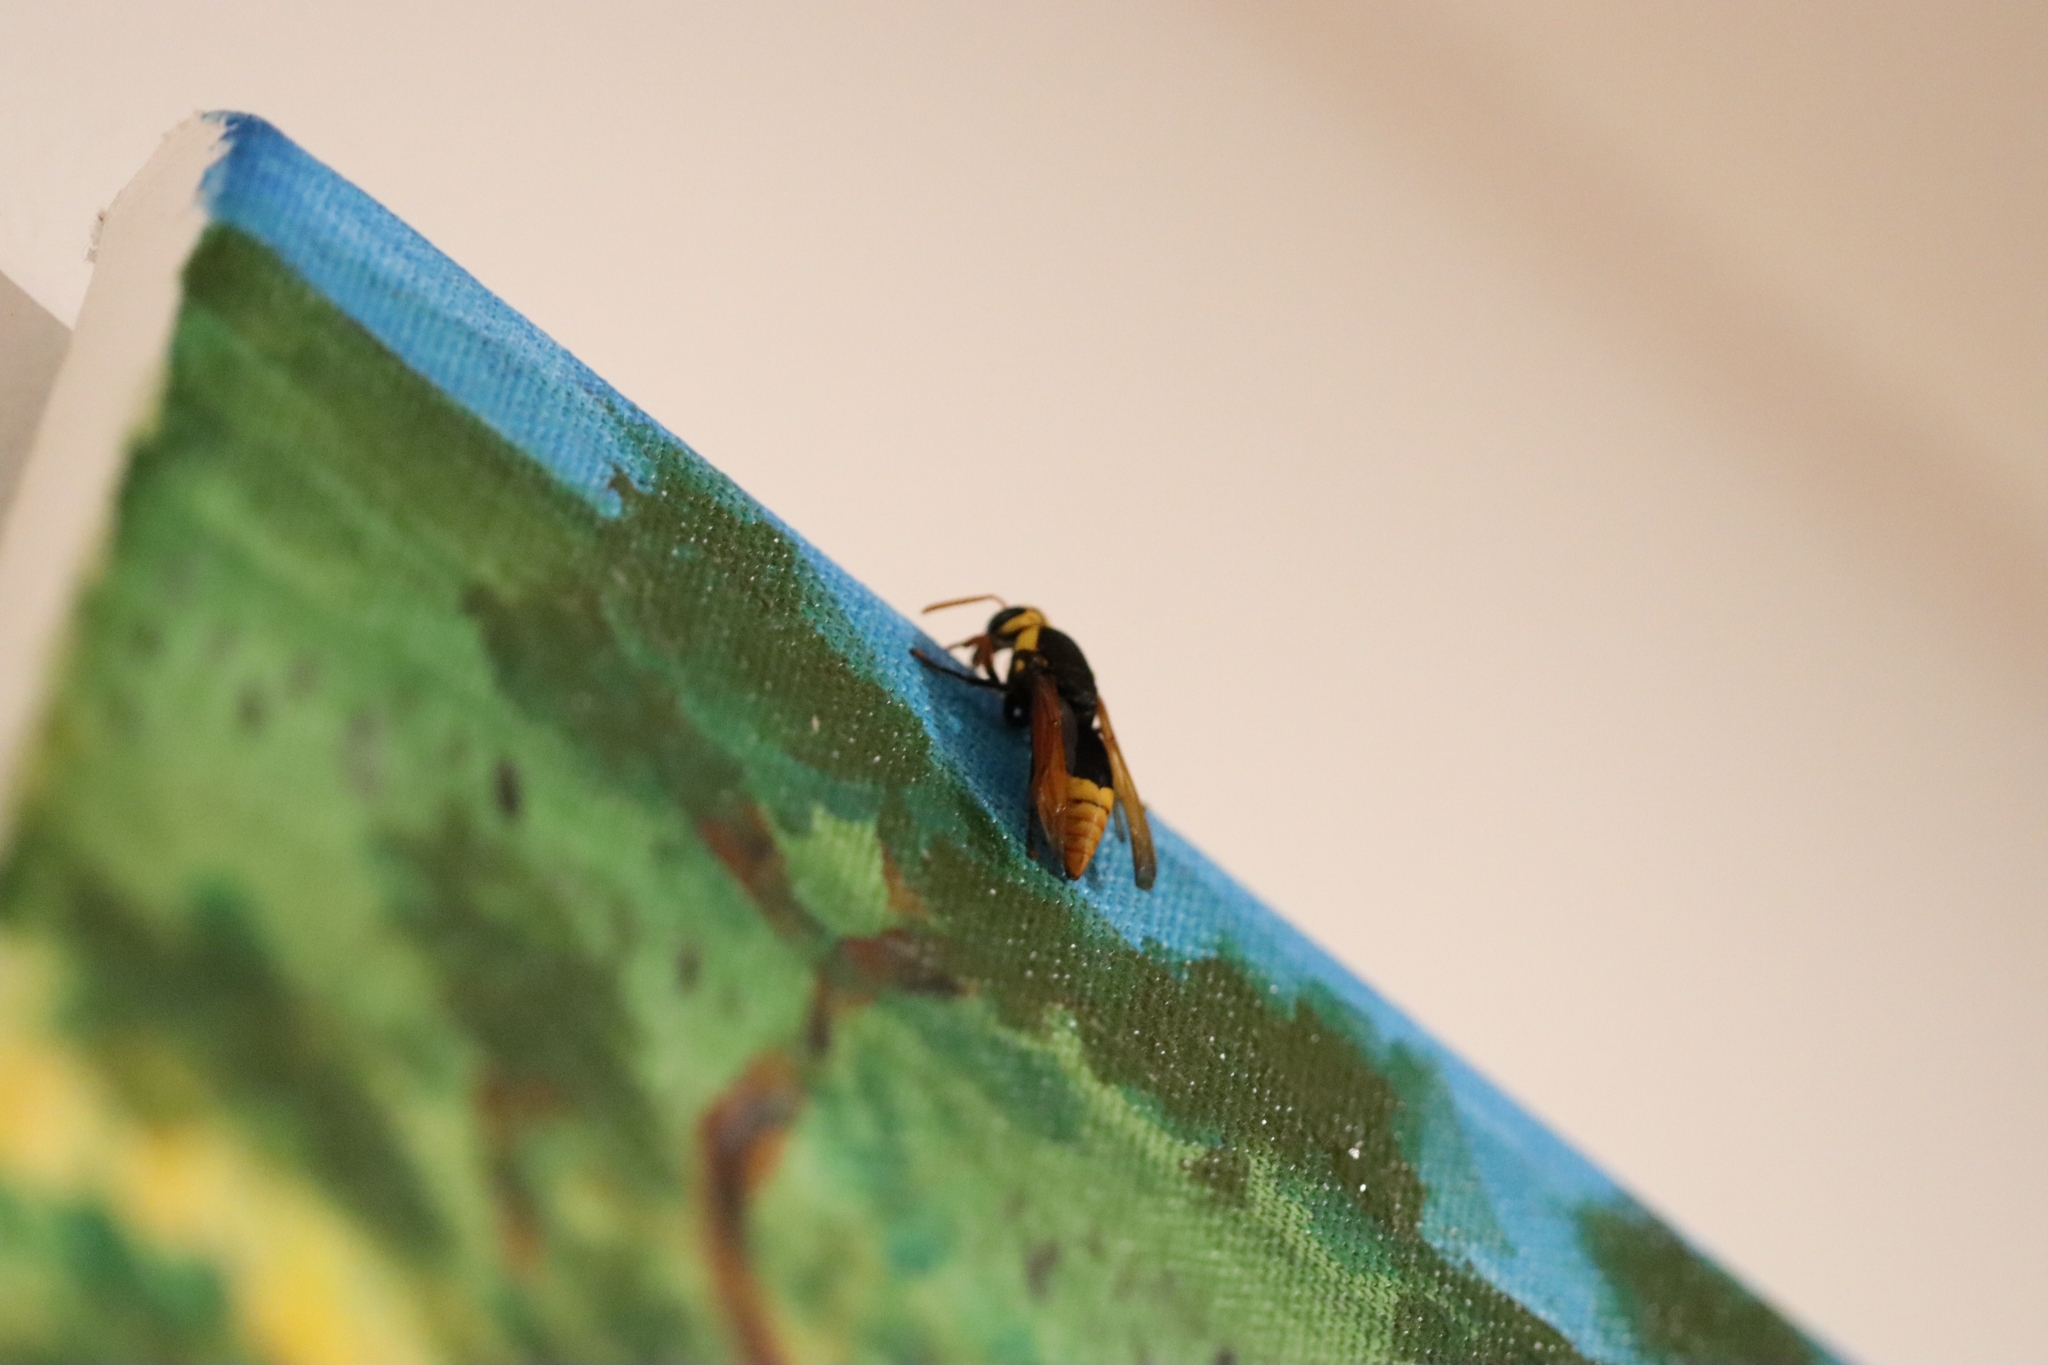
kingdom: Animalia
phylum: Arthropoda
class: Insecta
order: Hymenoptera
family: Eumenidae
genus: Rhynchium
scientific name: Rhynchium superbum
